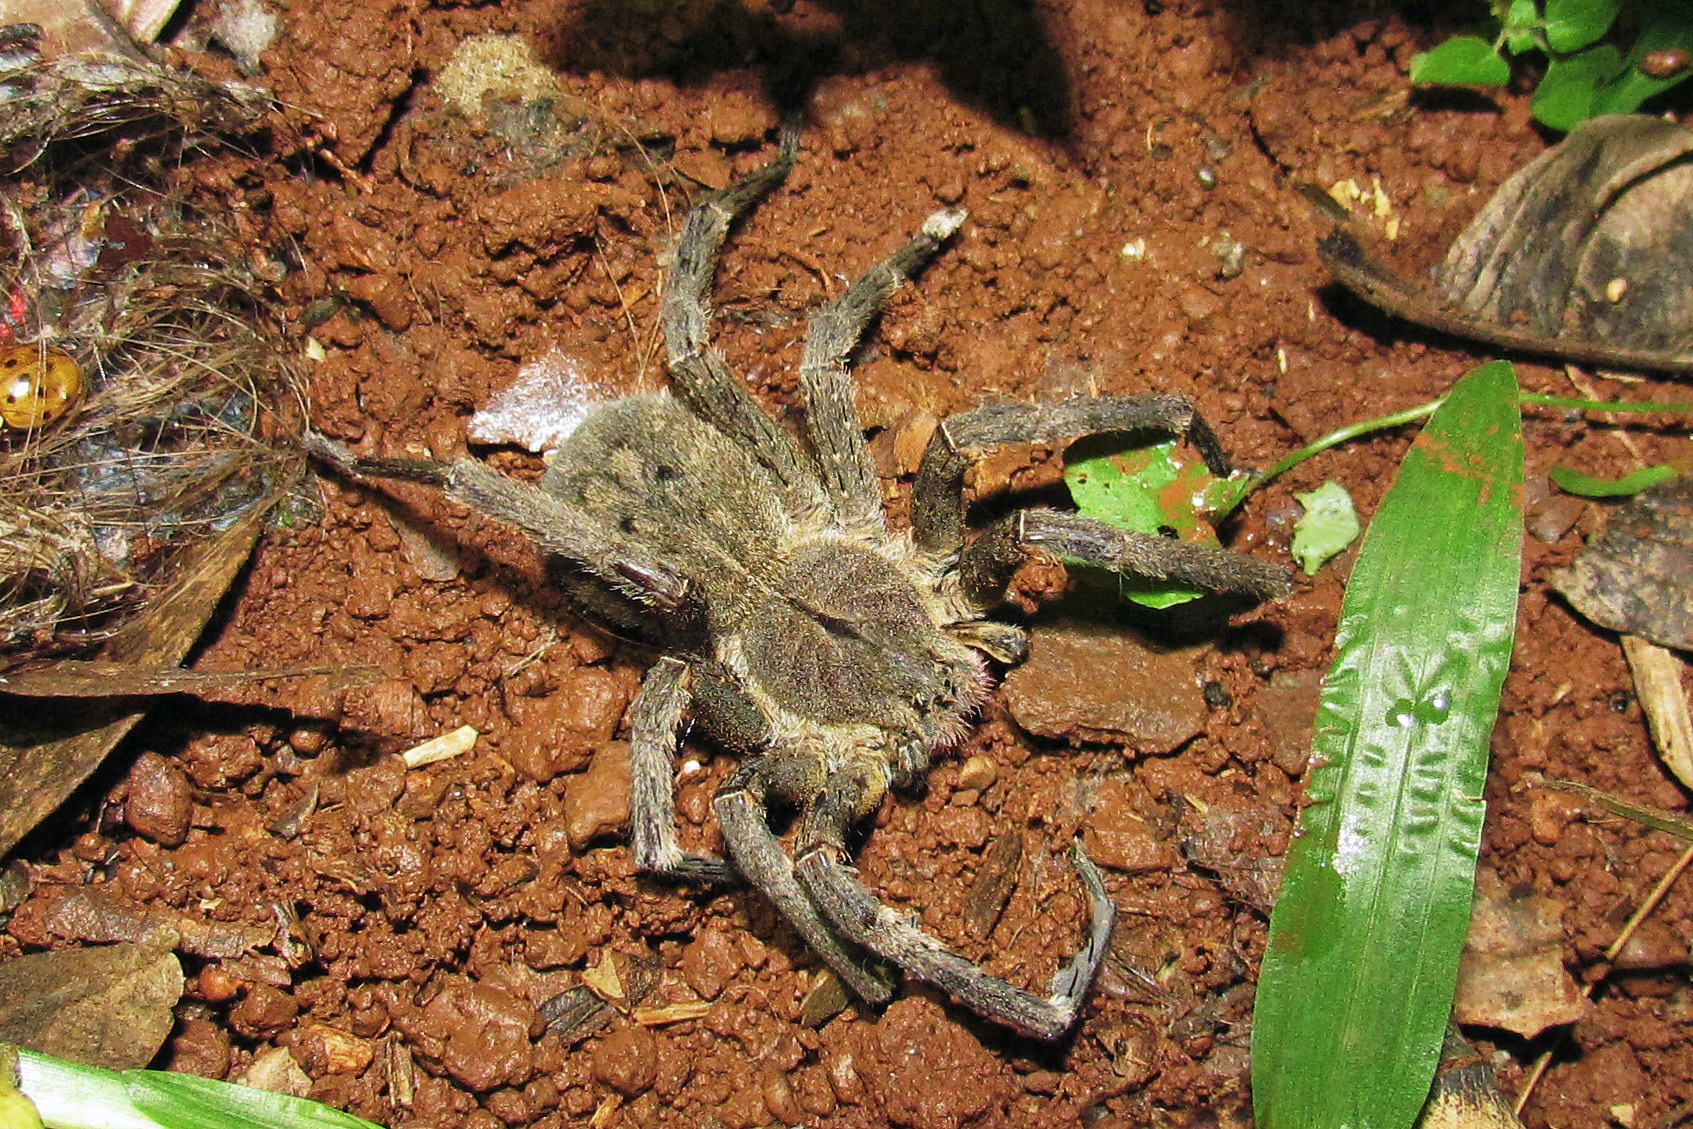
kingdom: Animalia
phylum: Arthropoda
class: Arachnida
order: Araneae
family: Ctenidae
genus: Phoneutria
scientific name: Phoneutria nigriventer
